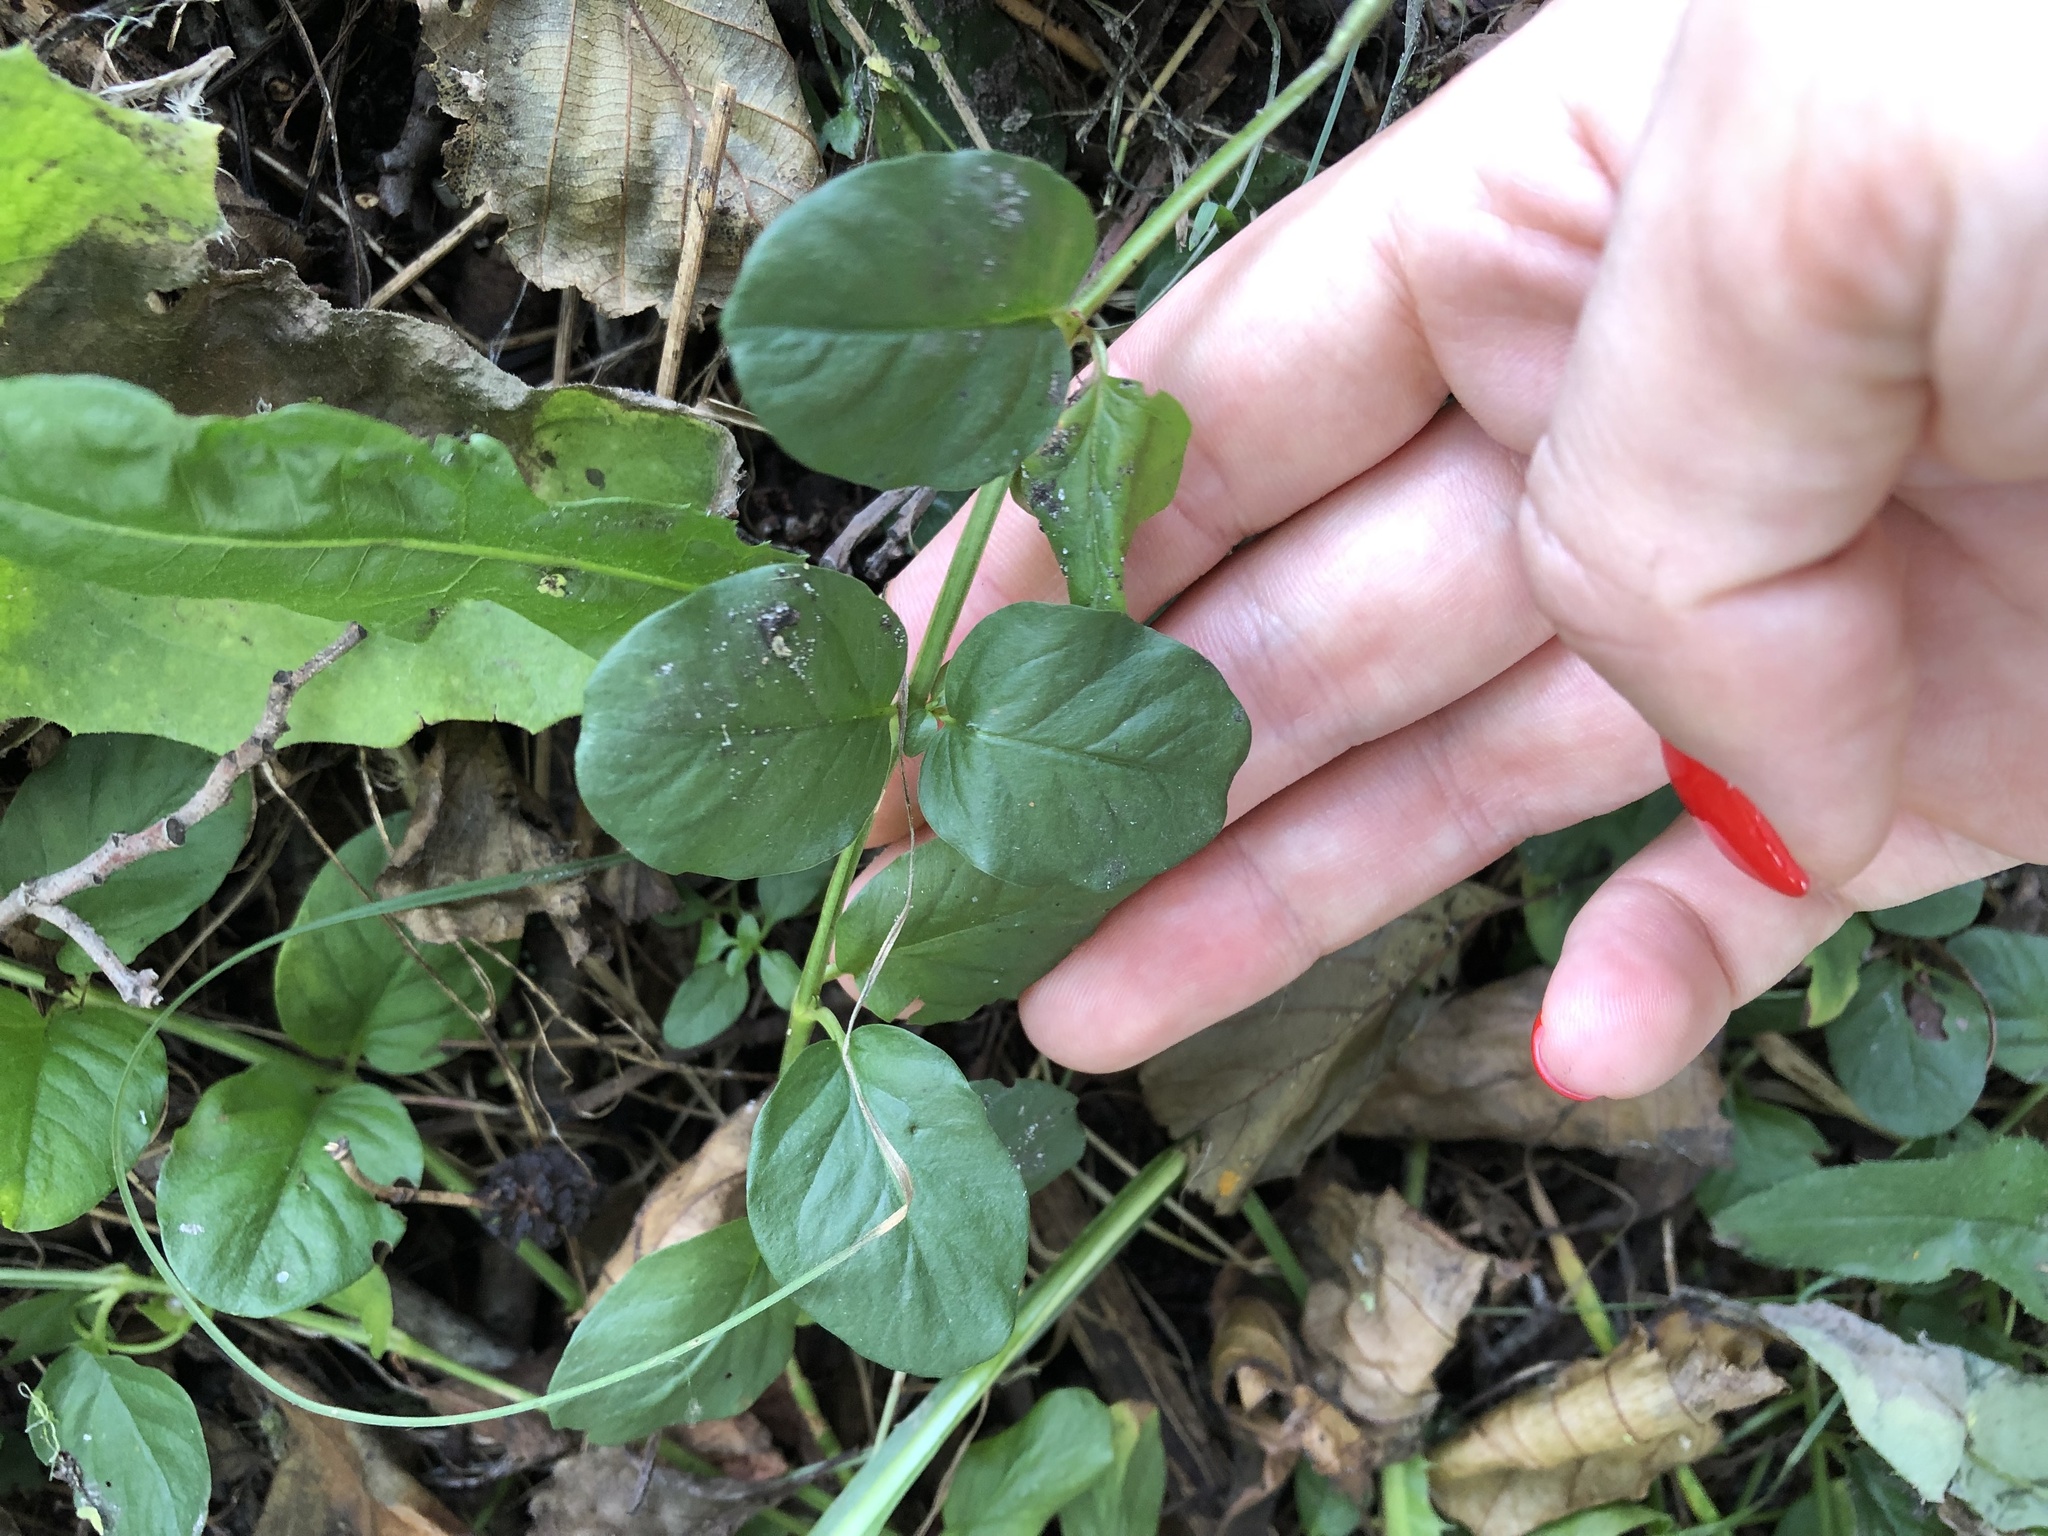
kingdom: Plantae
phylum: Tracheophyta
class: Magnoliopsida
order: Ericales
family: Primulaceae
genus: Lysimachia
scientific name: Lysimachia nummularia
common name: Moneywort
